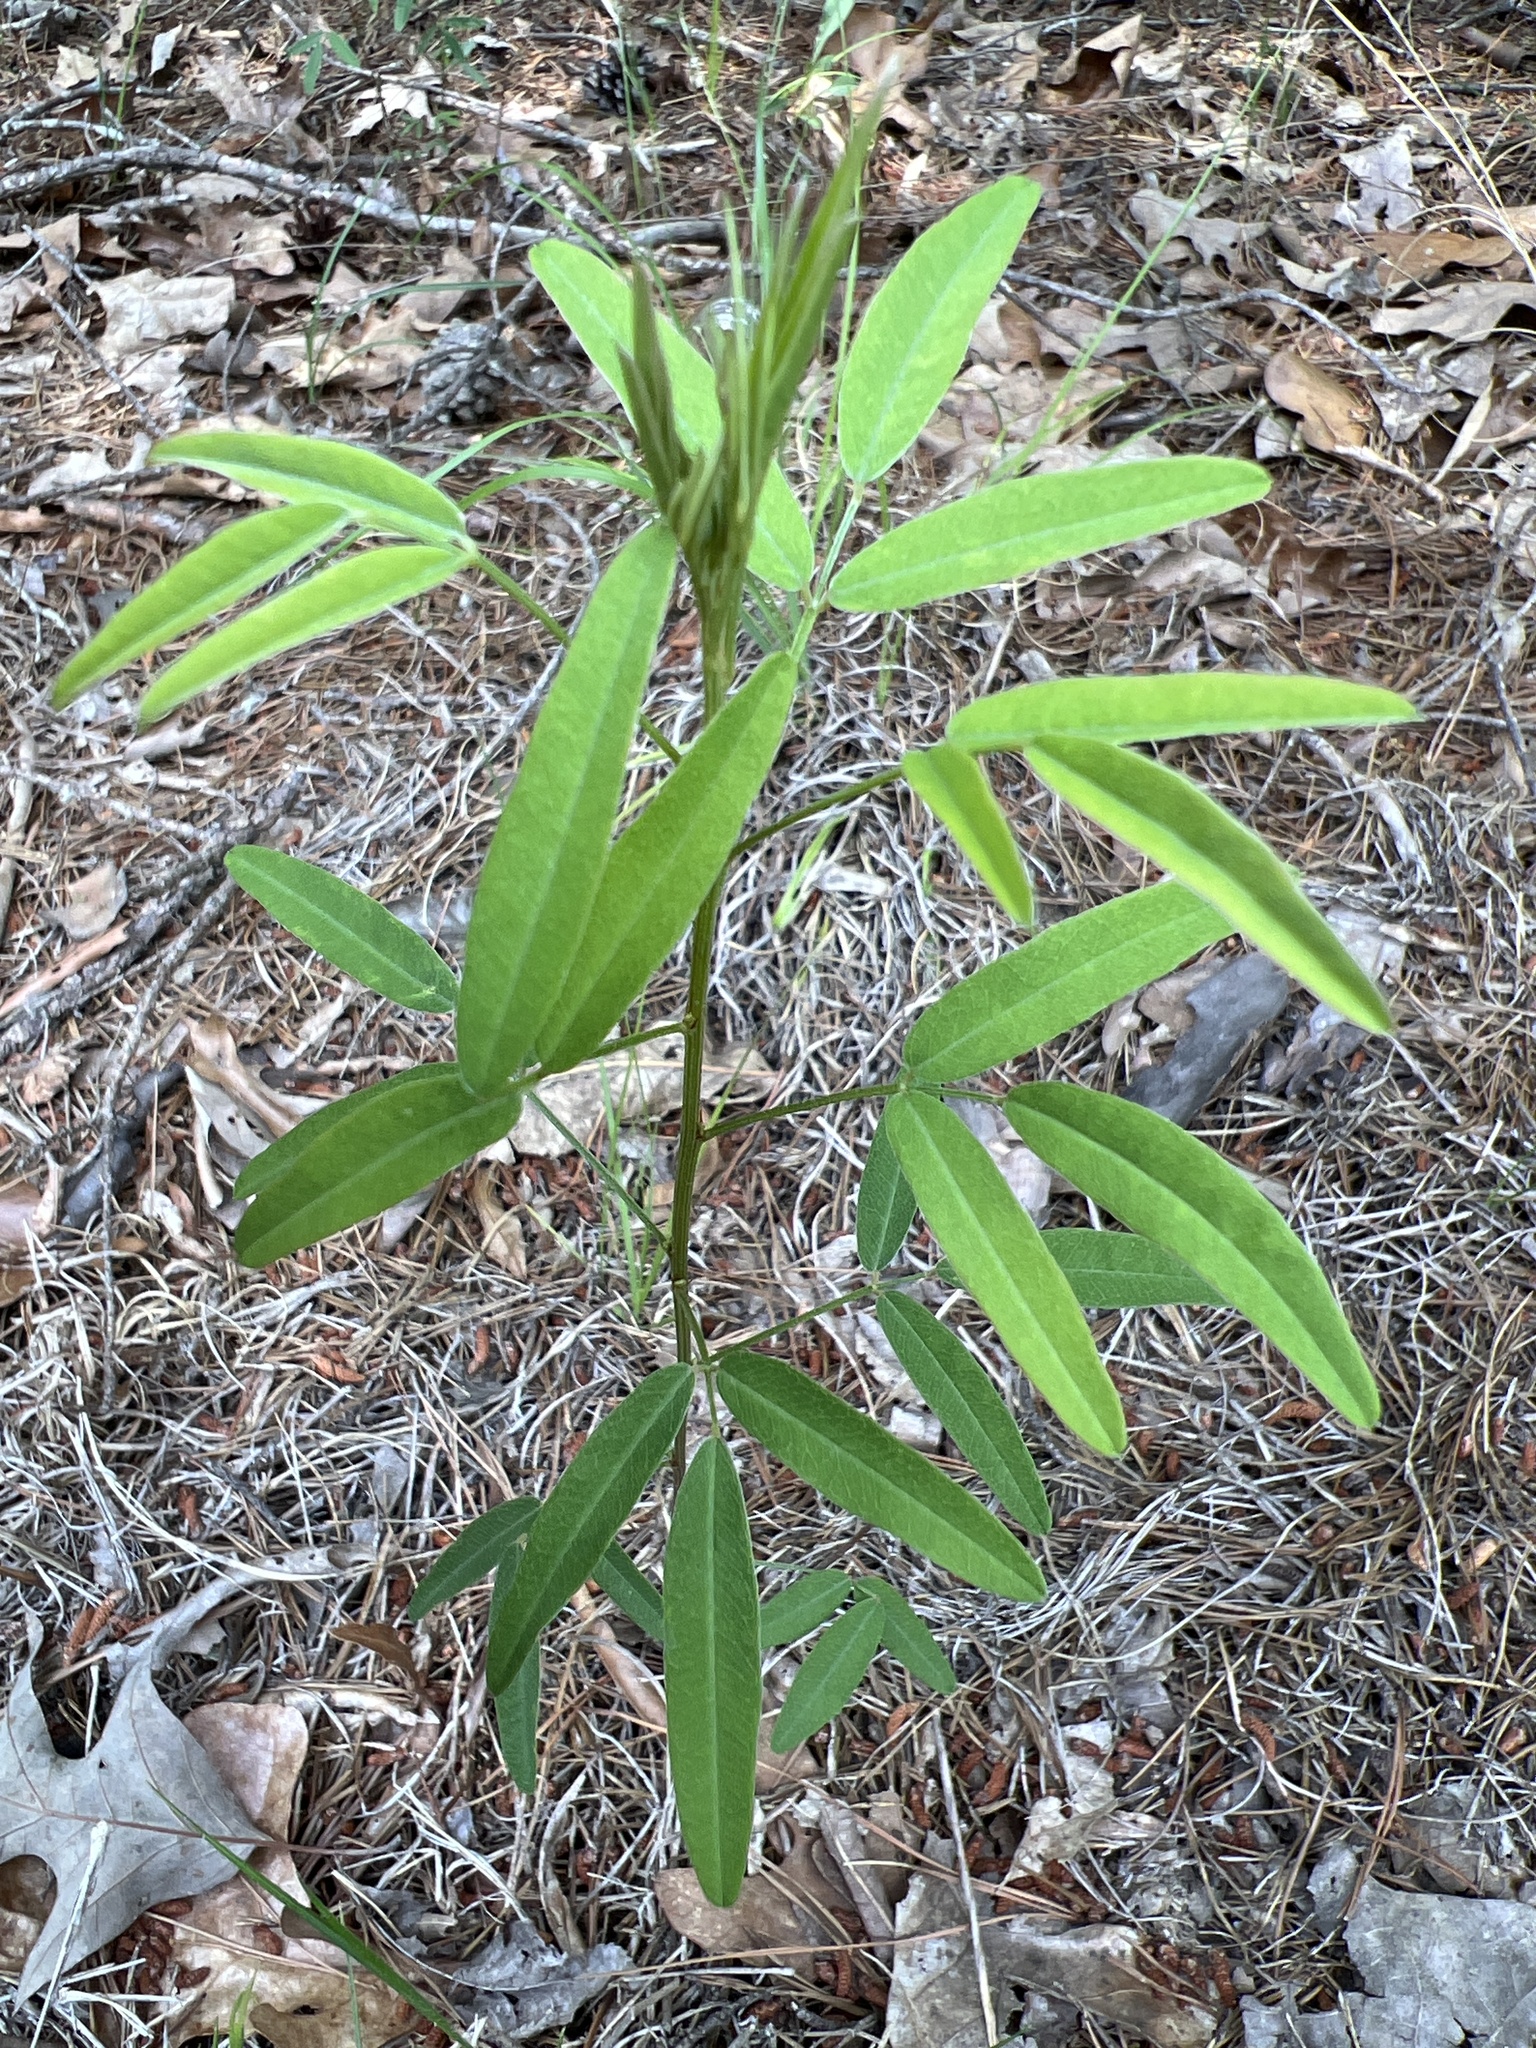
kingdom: Plantae
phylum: Tracheophyta
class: Magnoliopsida
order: Fabales
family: Fabaceae
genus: Lespedeza
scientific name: Lespedeza virginica
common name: Slender bush-clover
